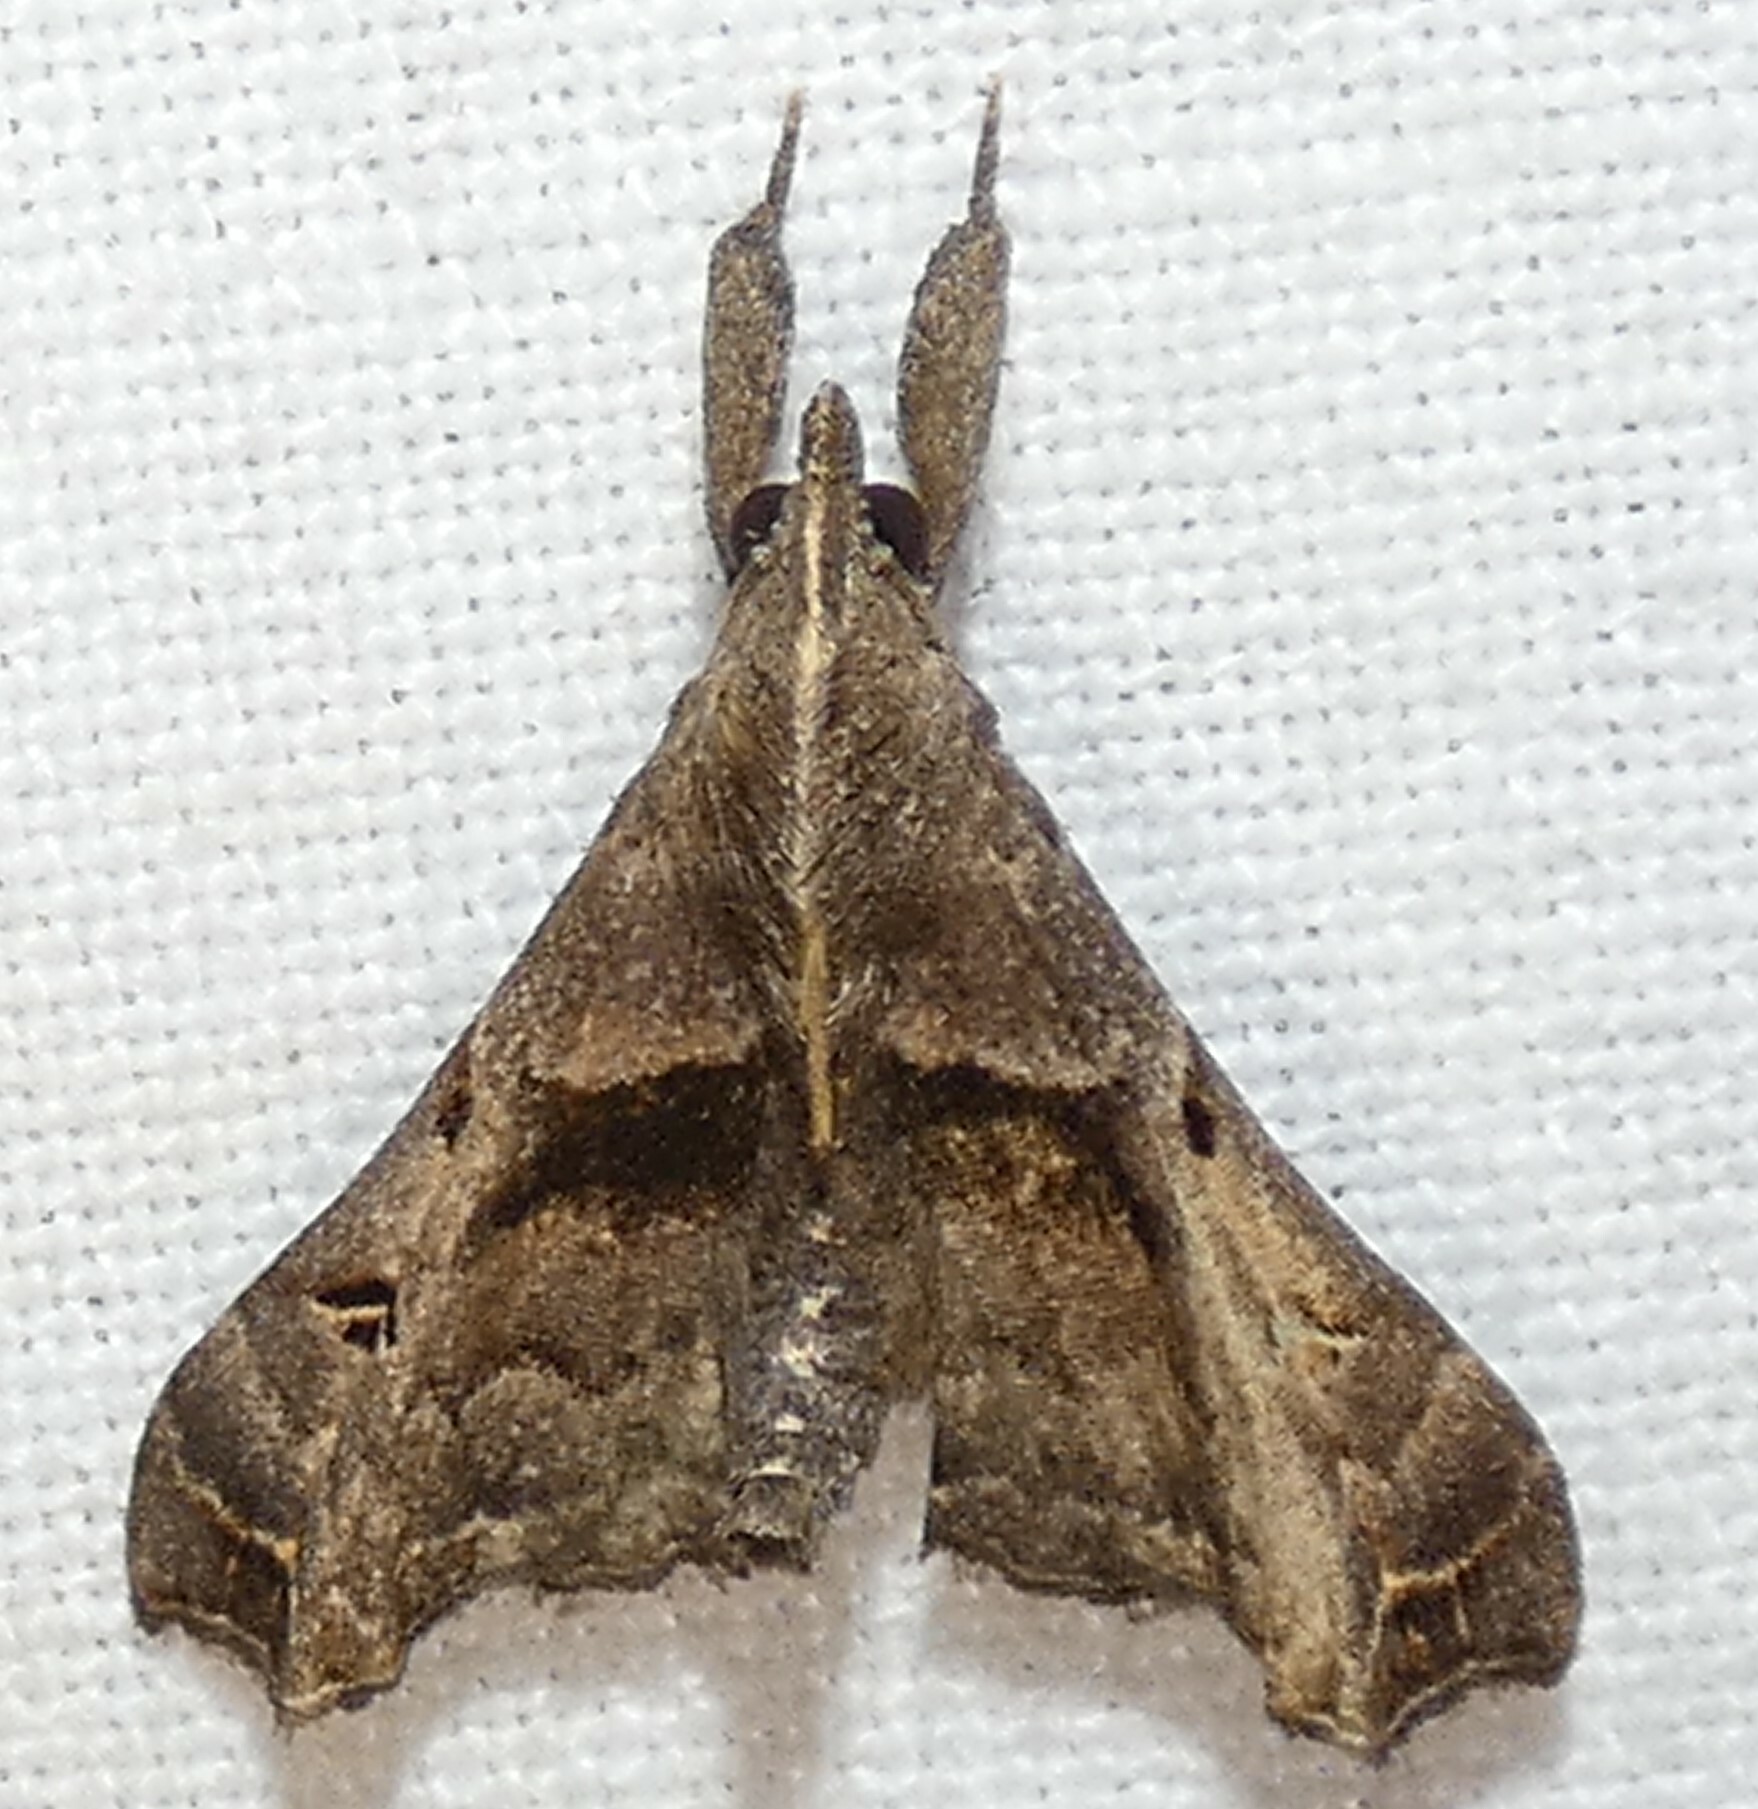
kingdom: Animalia
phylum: Arthropoda
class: Insecta
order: Lepidoptera
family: Erebidae
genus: Palthis
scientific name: Palthis asopialis
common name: Faint-spotted palthis moth
